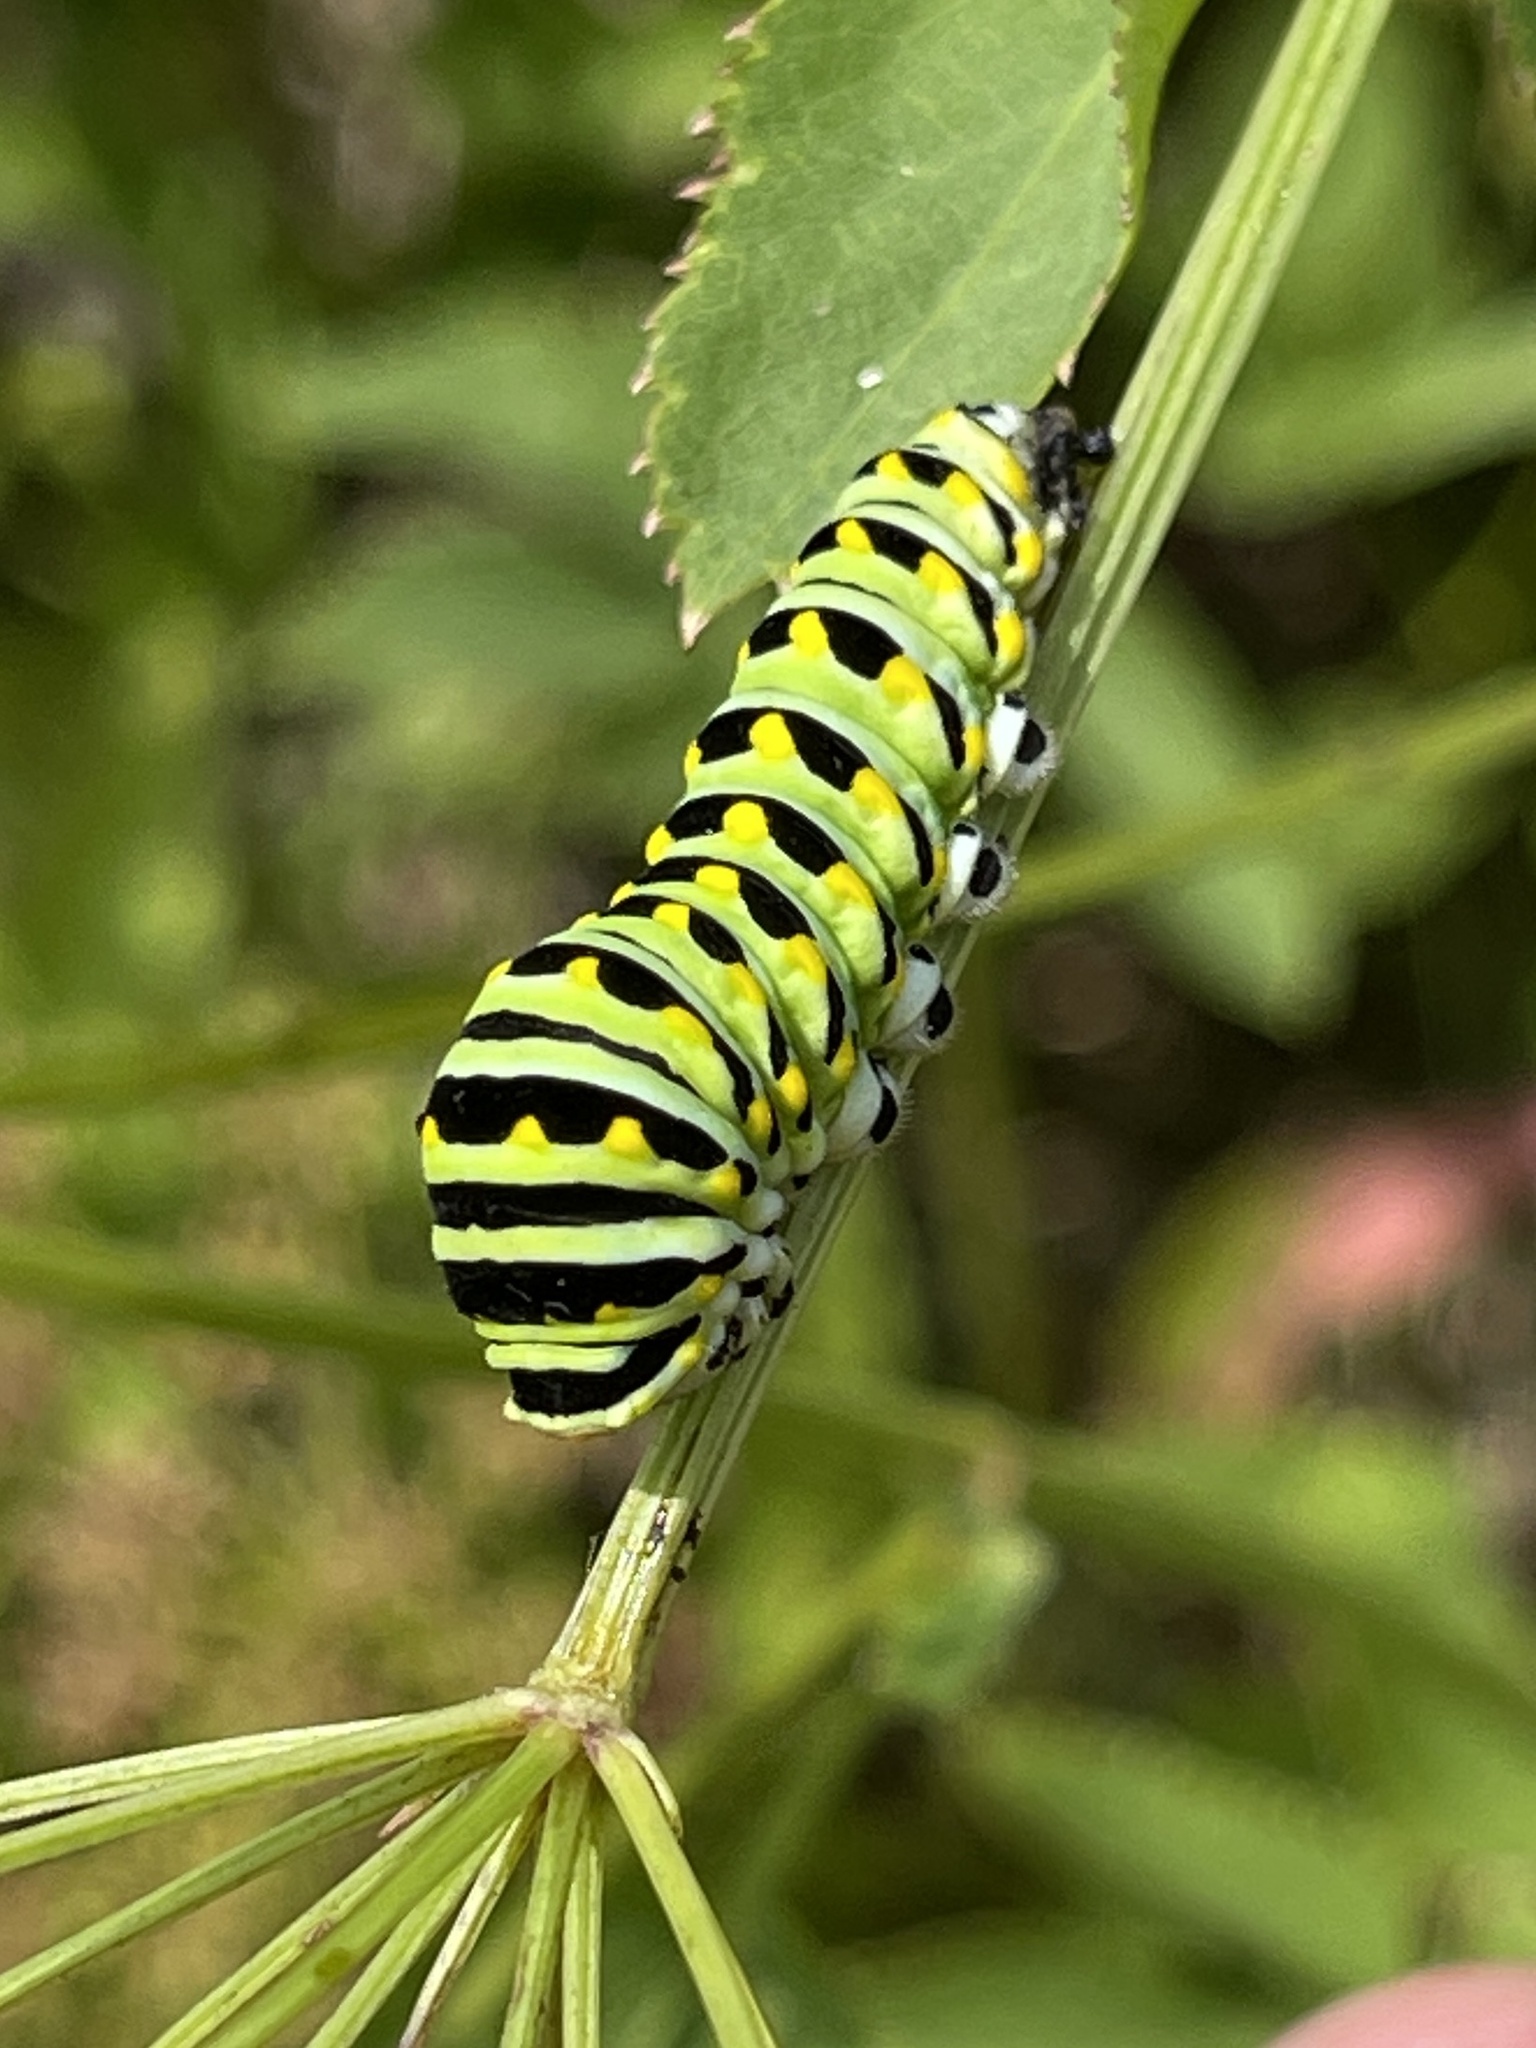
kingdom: Animalia
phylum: Arthropoda
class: Insecta
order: Lepidoptera
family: Papilionidae
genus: Papilio
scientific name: Papilio polyxenes
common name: Black swallowtail
